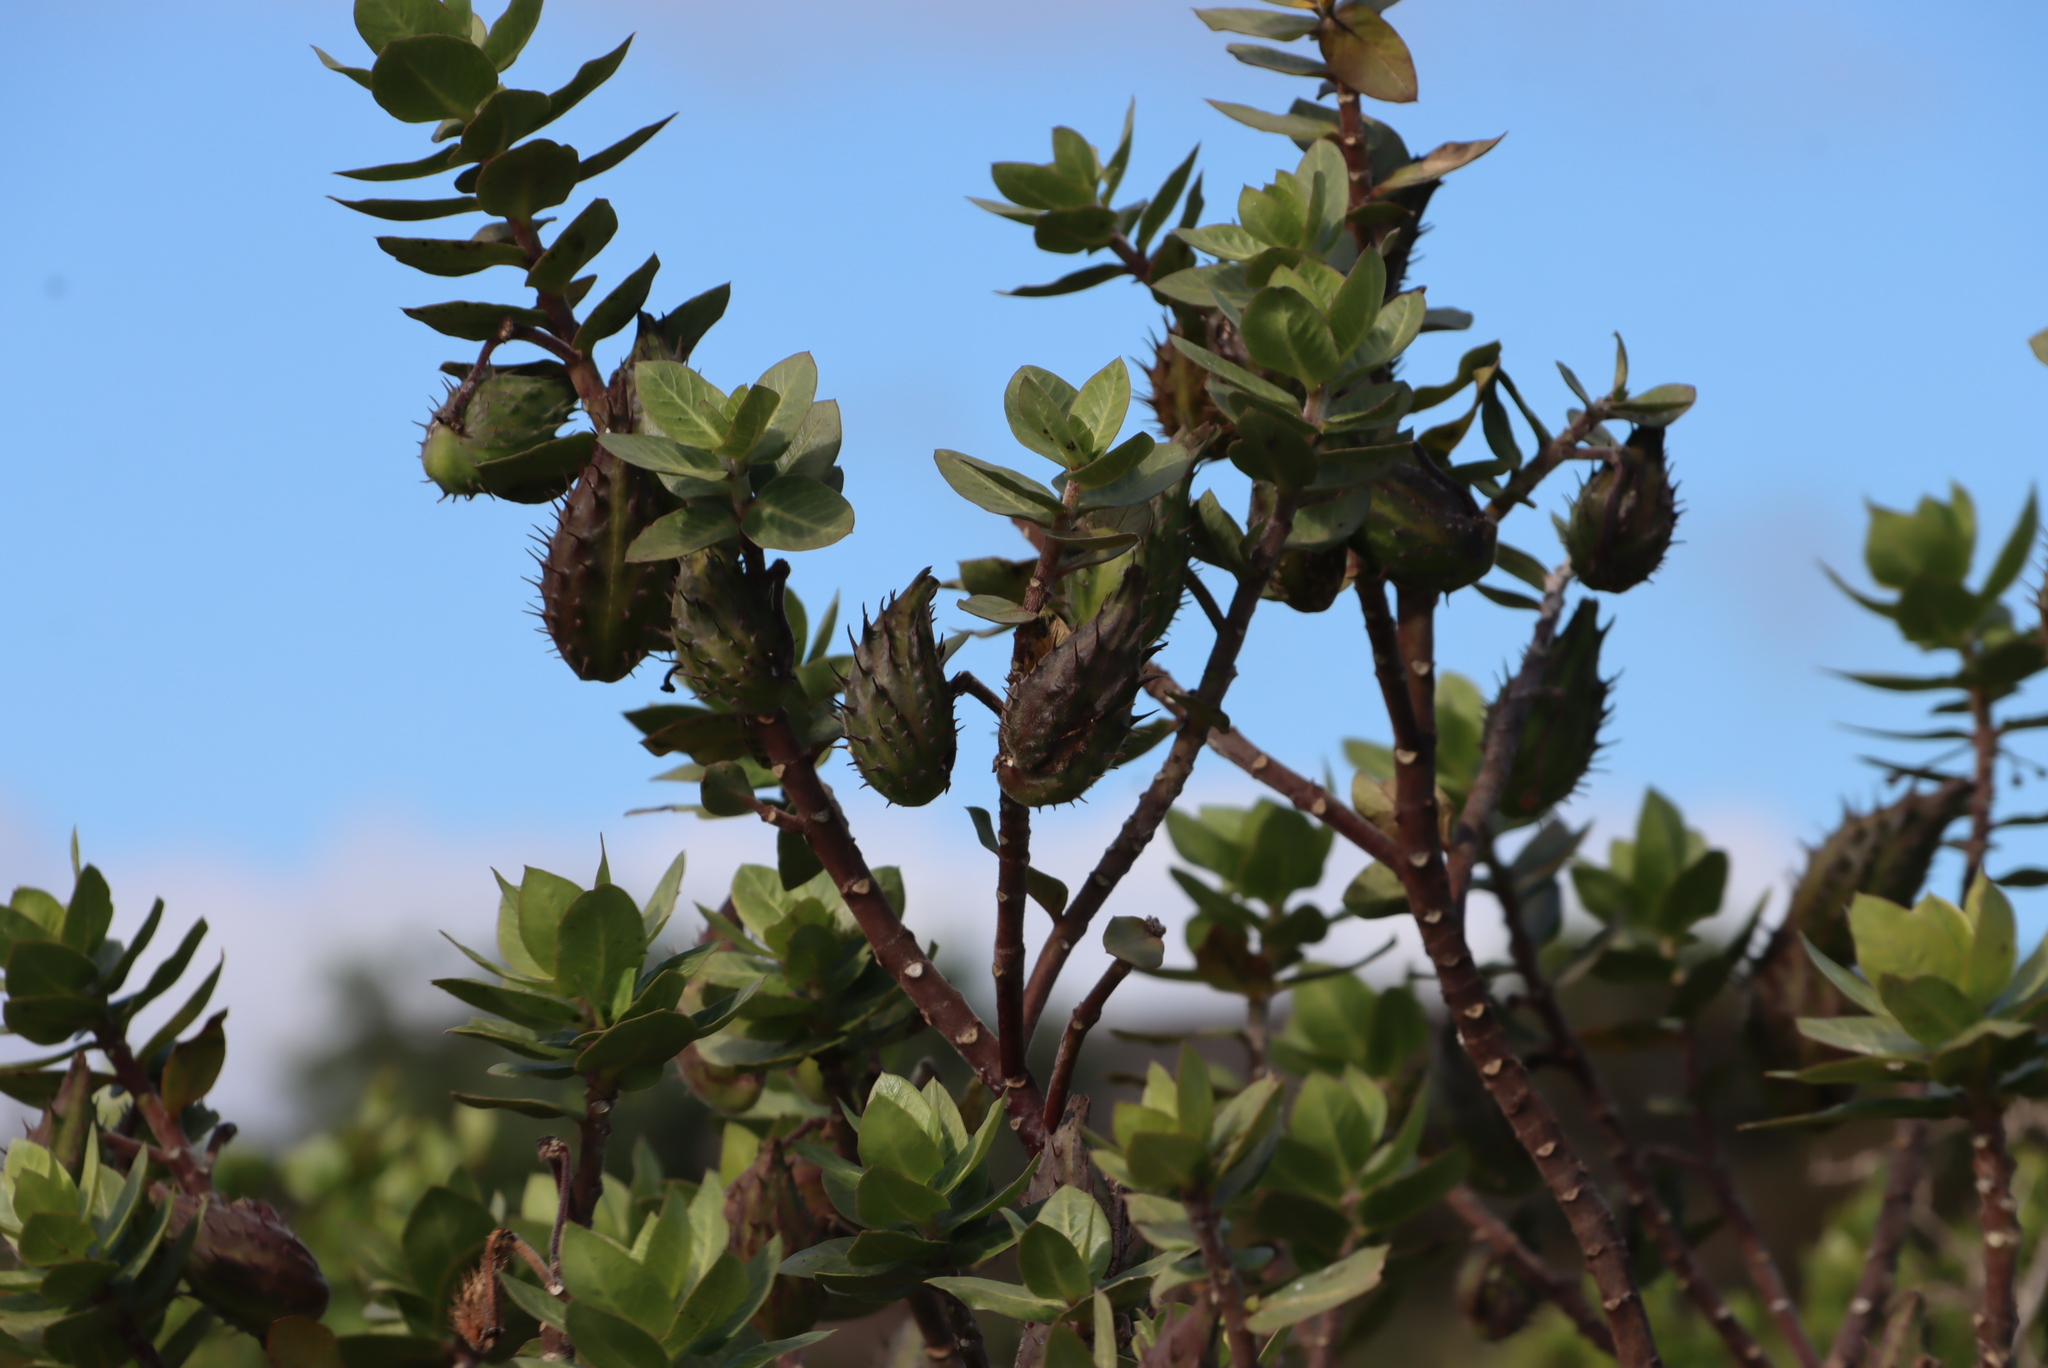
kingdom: Plantae
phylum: Tracheophyta
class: Magnoliopsida
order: Gentianales
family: Apocynaceae
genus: Gomphocarpus
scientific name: Gomphocarpus cancellatus
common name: Wild cotton
